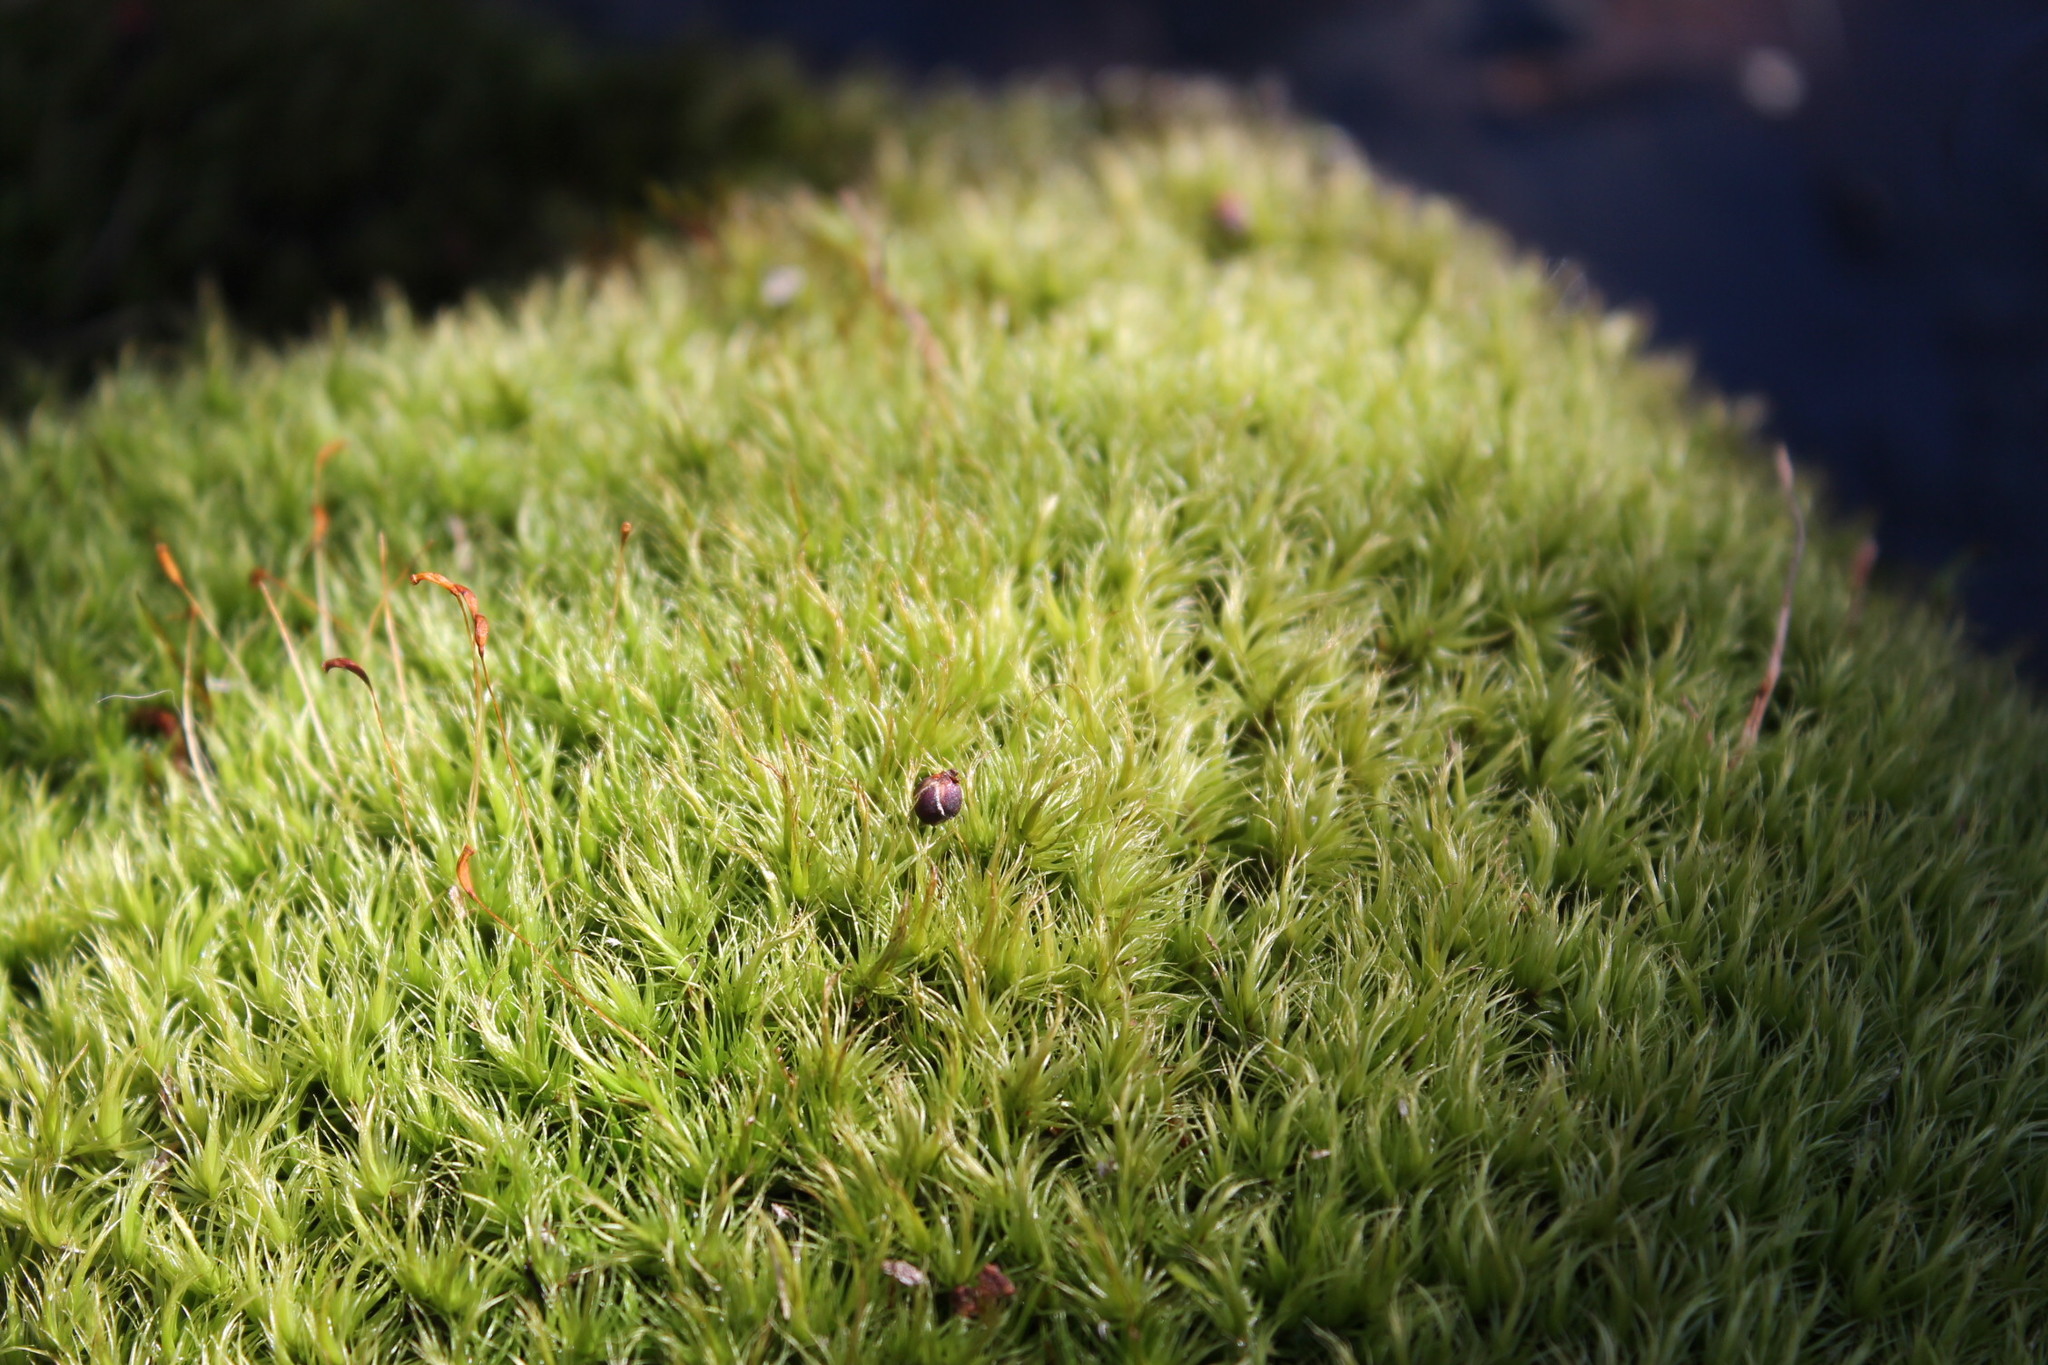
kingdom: Plantae
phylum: Bryophyta
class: Bryopsida
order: Dicranales
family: Dicranaceae
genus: Dicranum
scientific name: Dicranum scoparium
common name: Broom fork-moss
